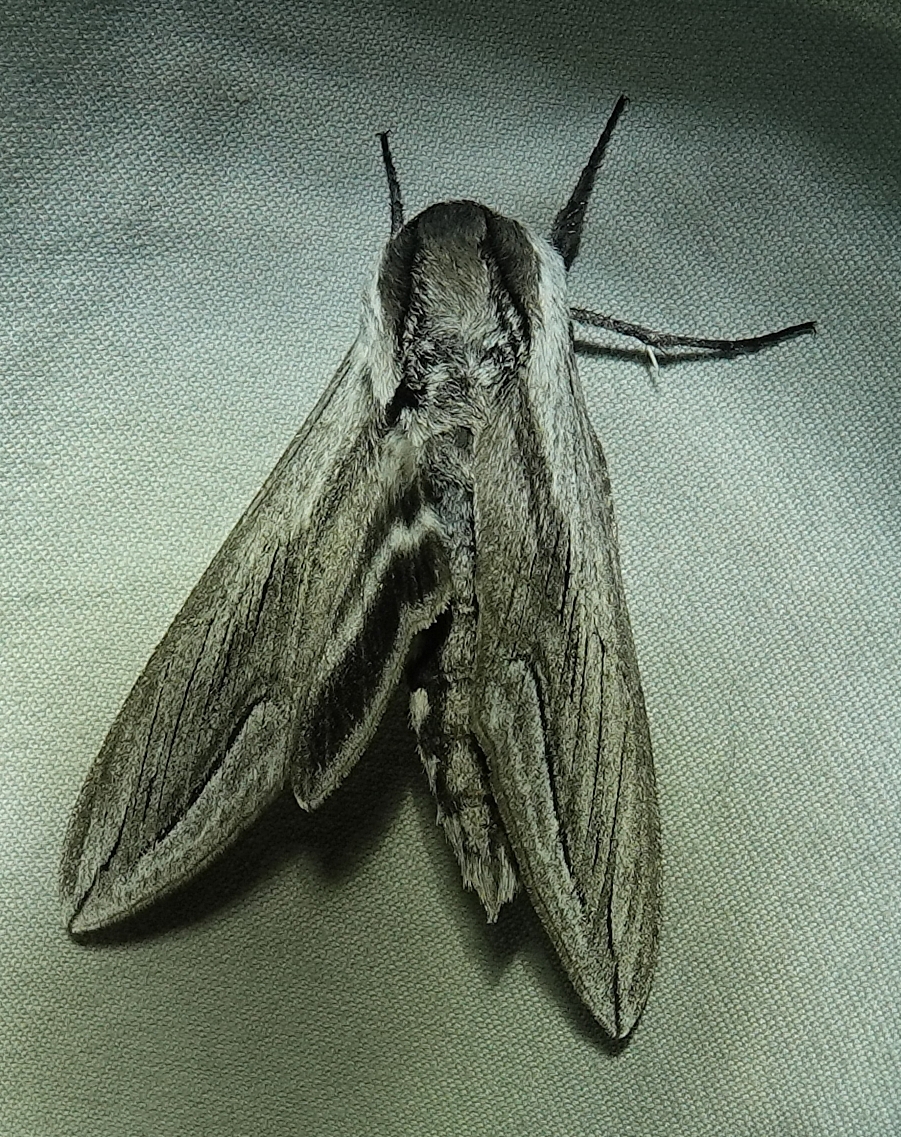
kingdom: Animalia
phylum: Arthropoda
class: Insecta
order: Lepidoptera
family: Sphingidae
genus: Sphinx
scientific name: Sphinx vashti
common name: Snowberry sphinx
